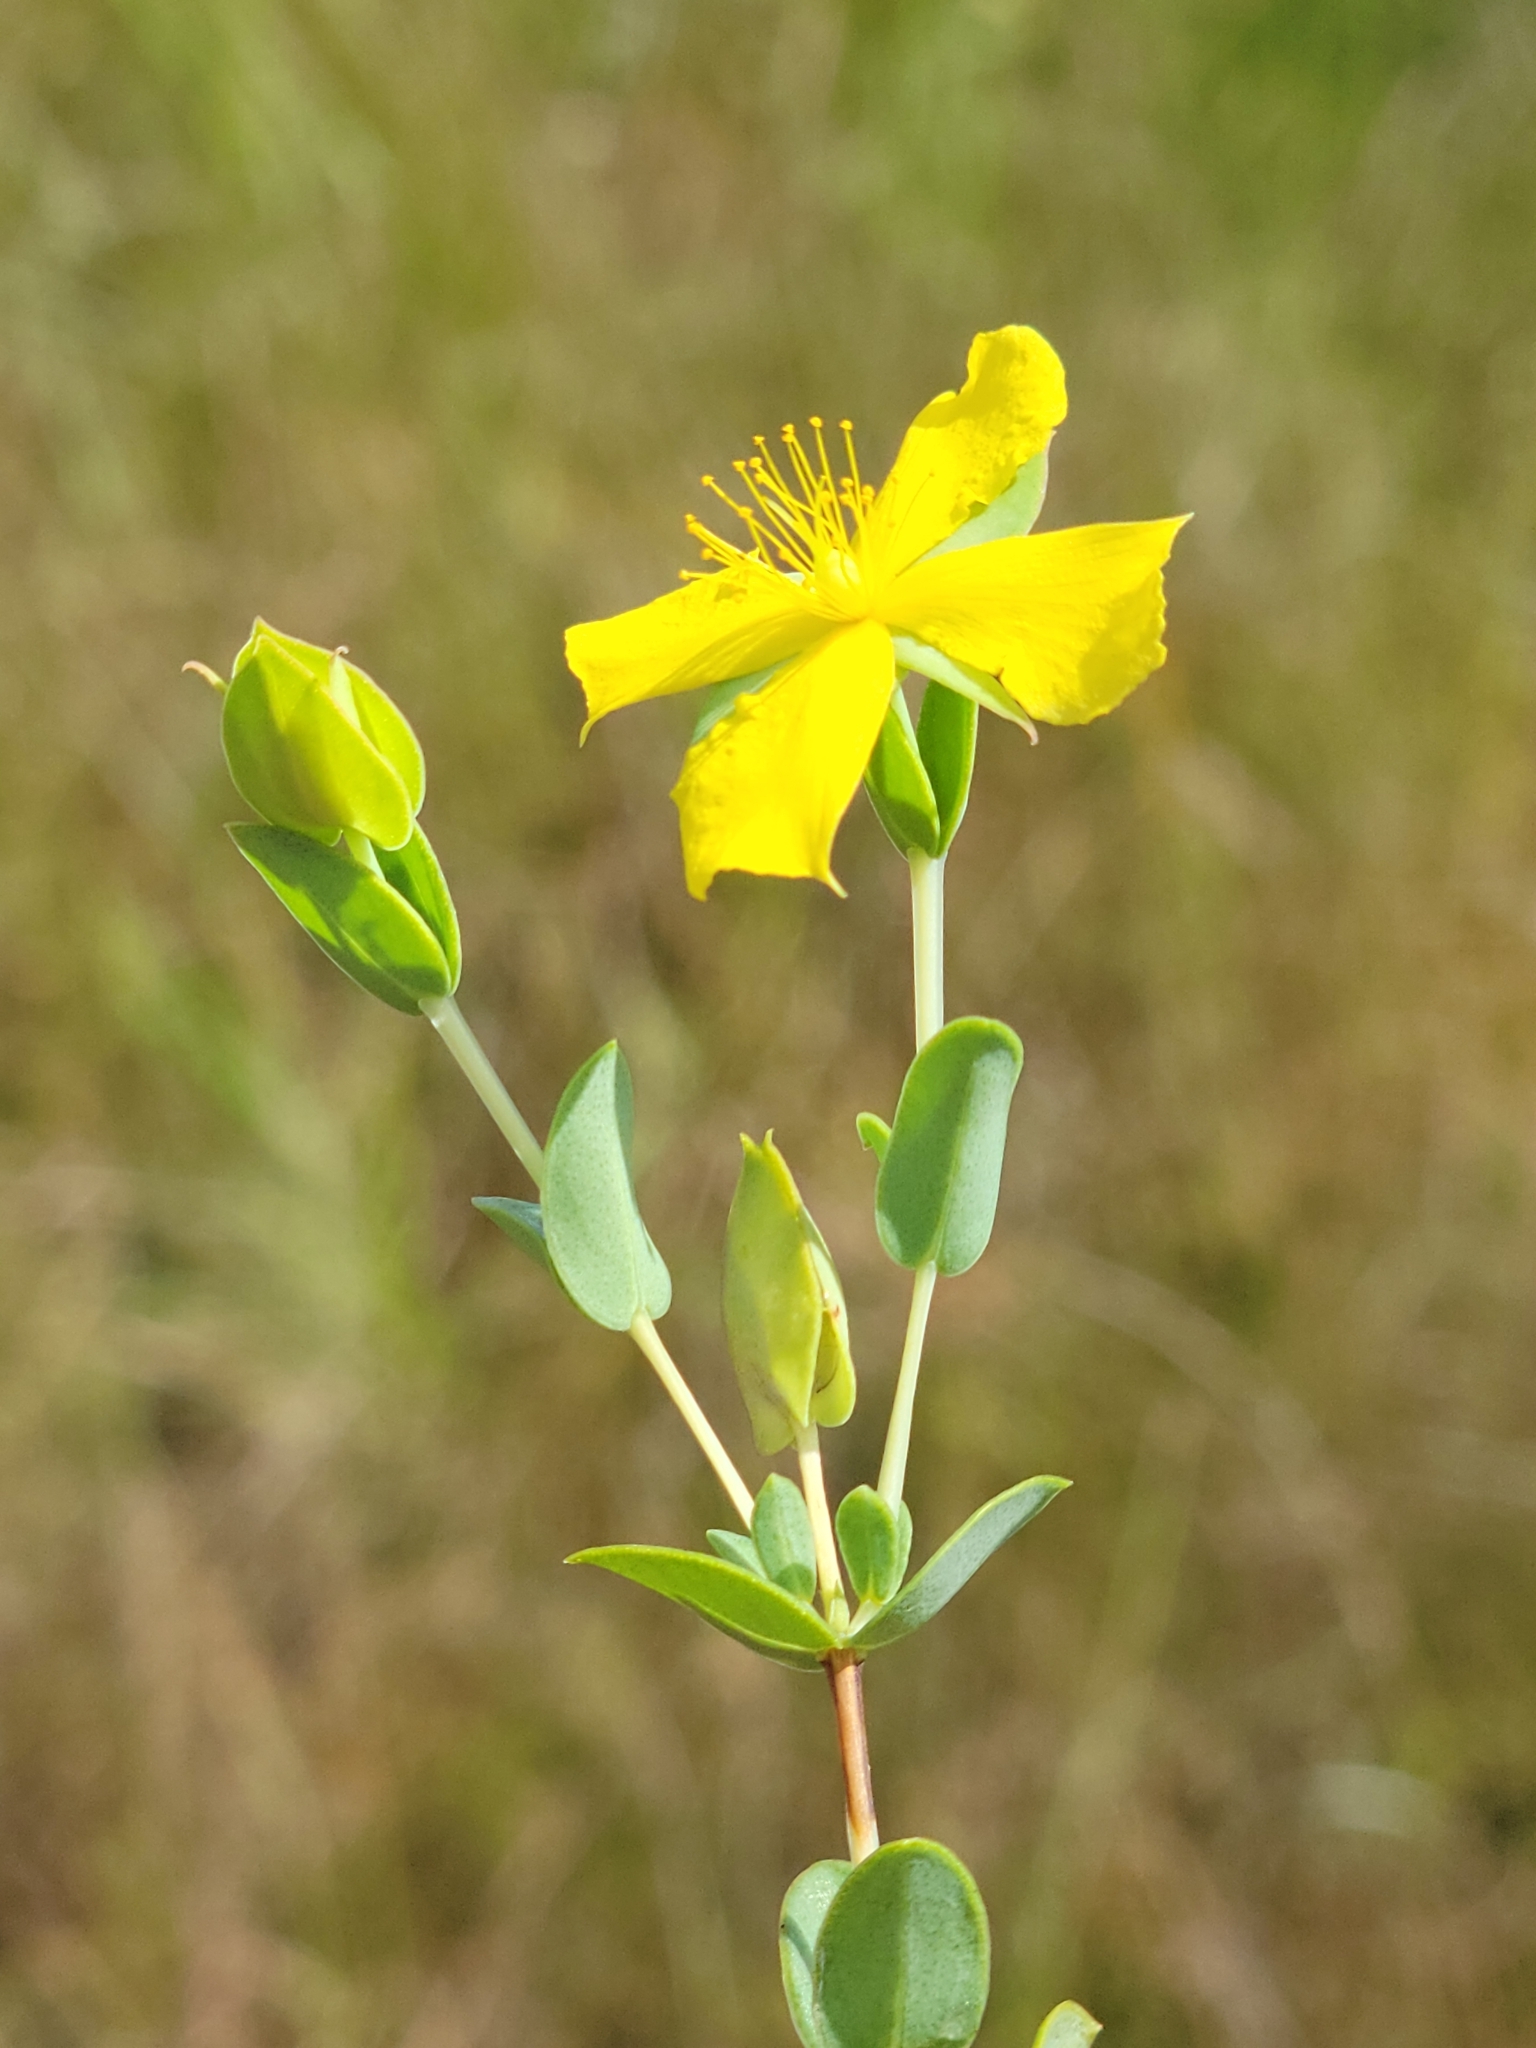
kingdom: Plantae
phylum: Tracheophyta
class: Magnoliopsida
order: Malpighiales
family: Hypericaceae
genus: Hypericum
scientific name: Hypericum tetrapetalum
